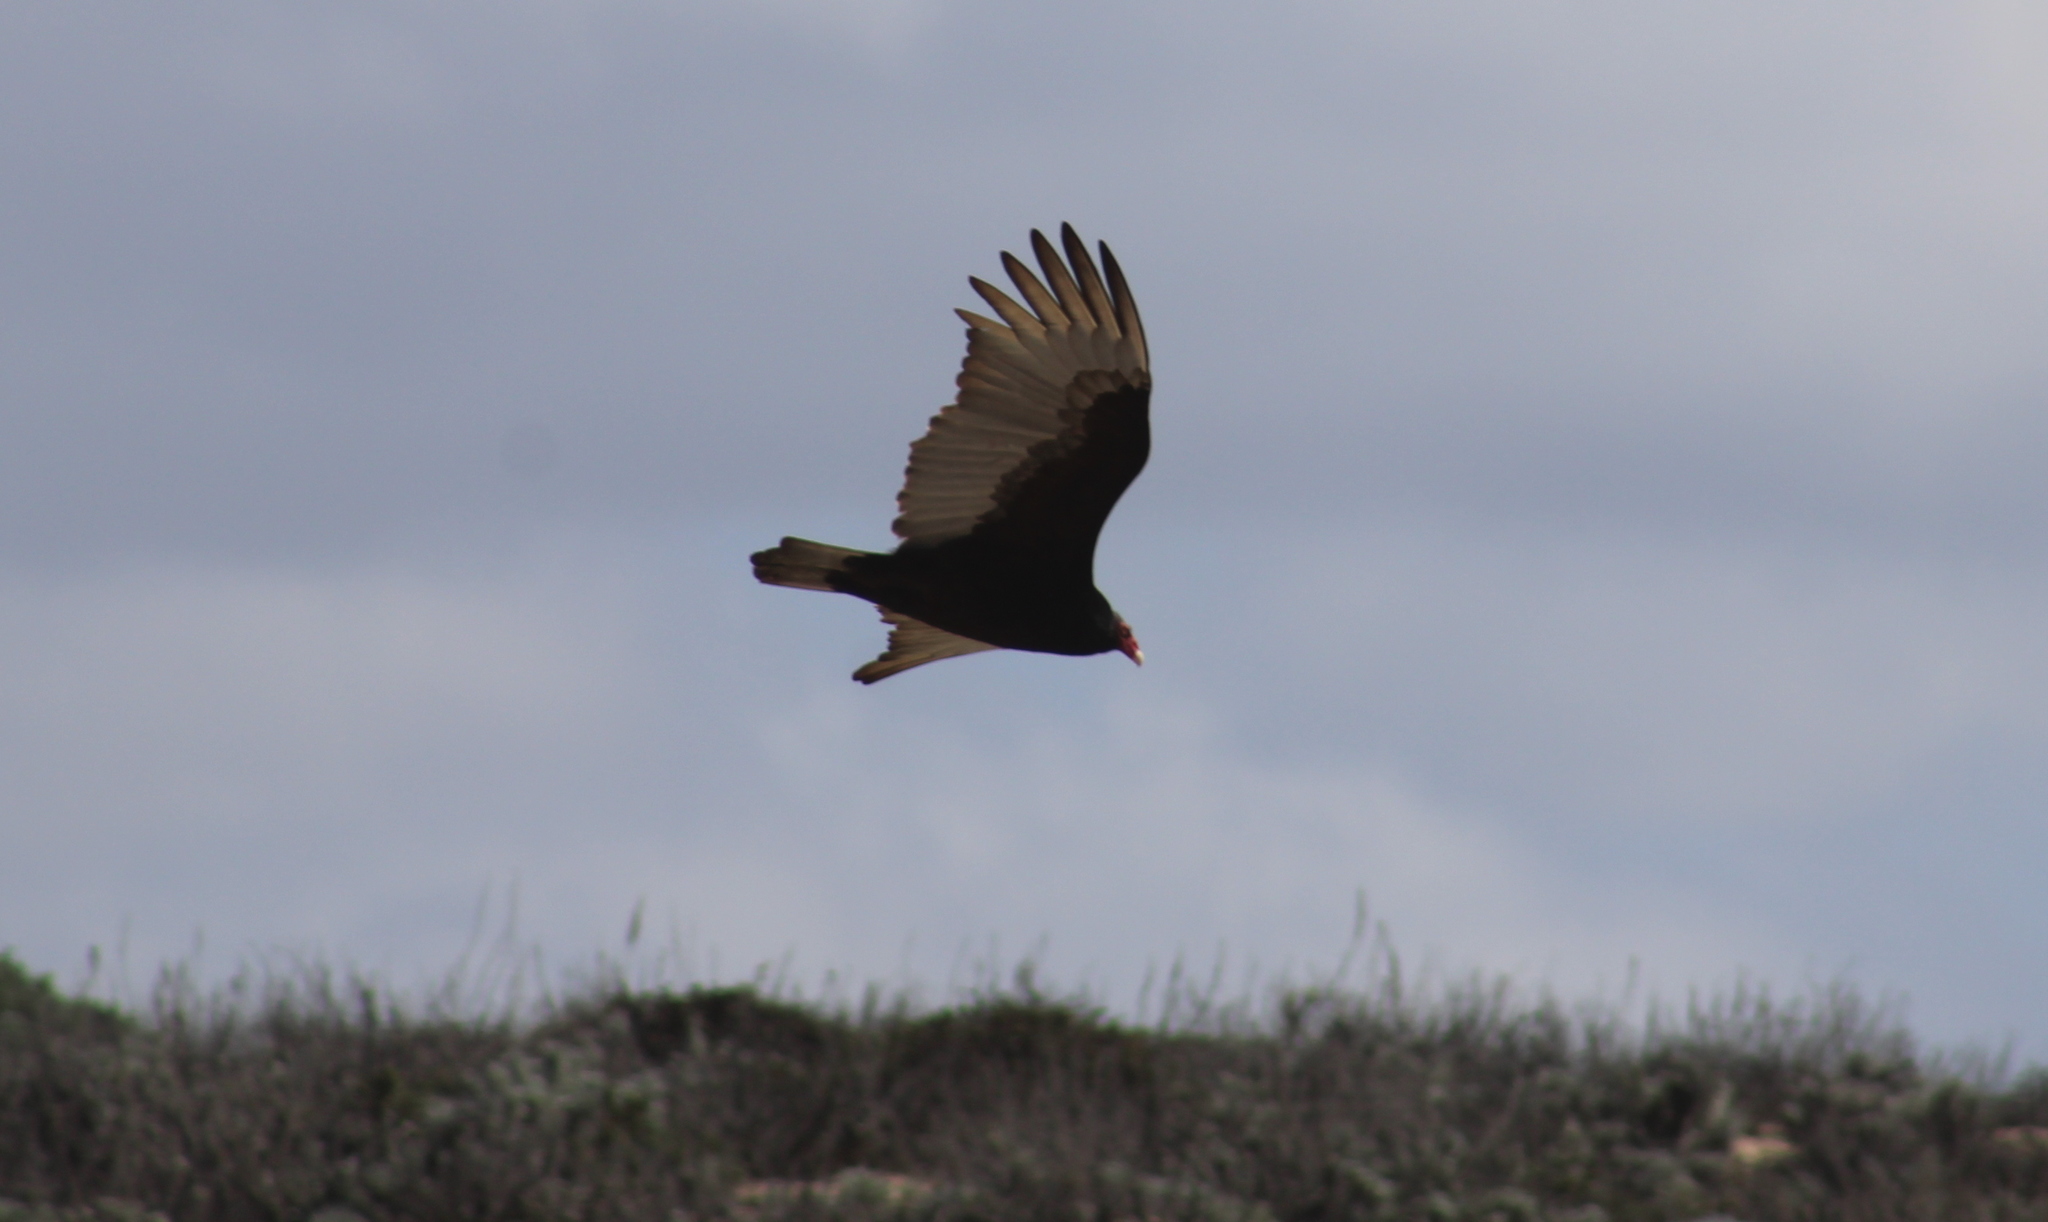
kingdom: Animalia
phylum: Chordata
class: Aves
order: Accipitriformes
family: Cathartidae
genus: Cathartes
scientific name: Cathartes aura
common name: Turkey vulture
